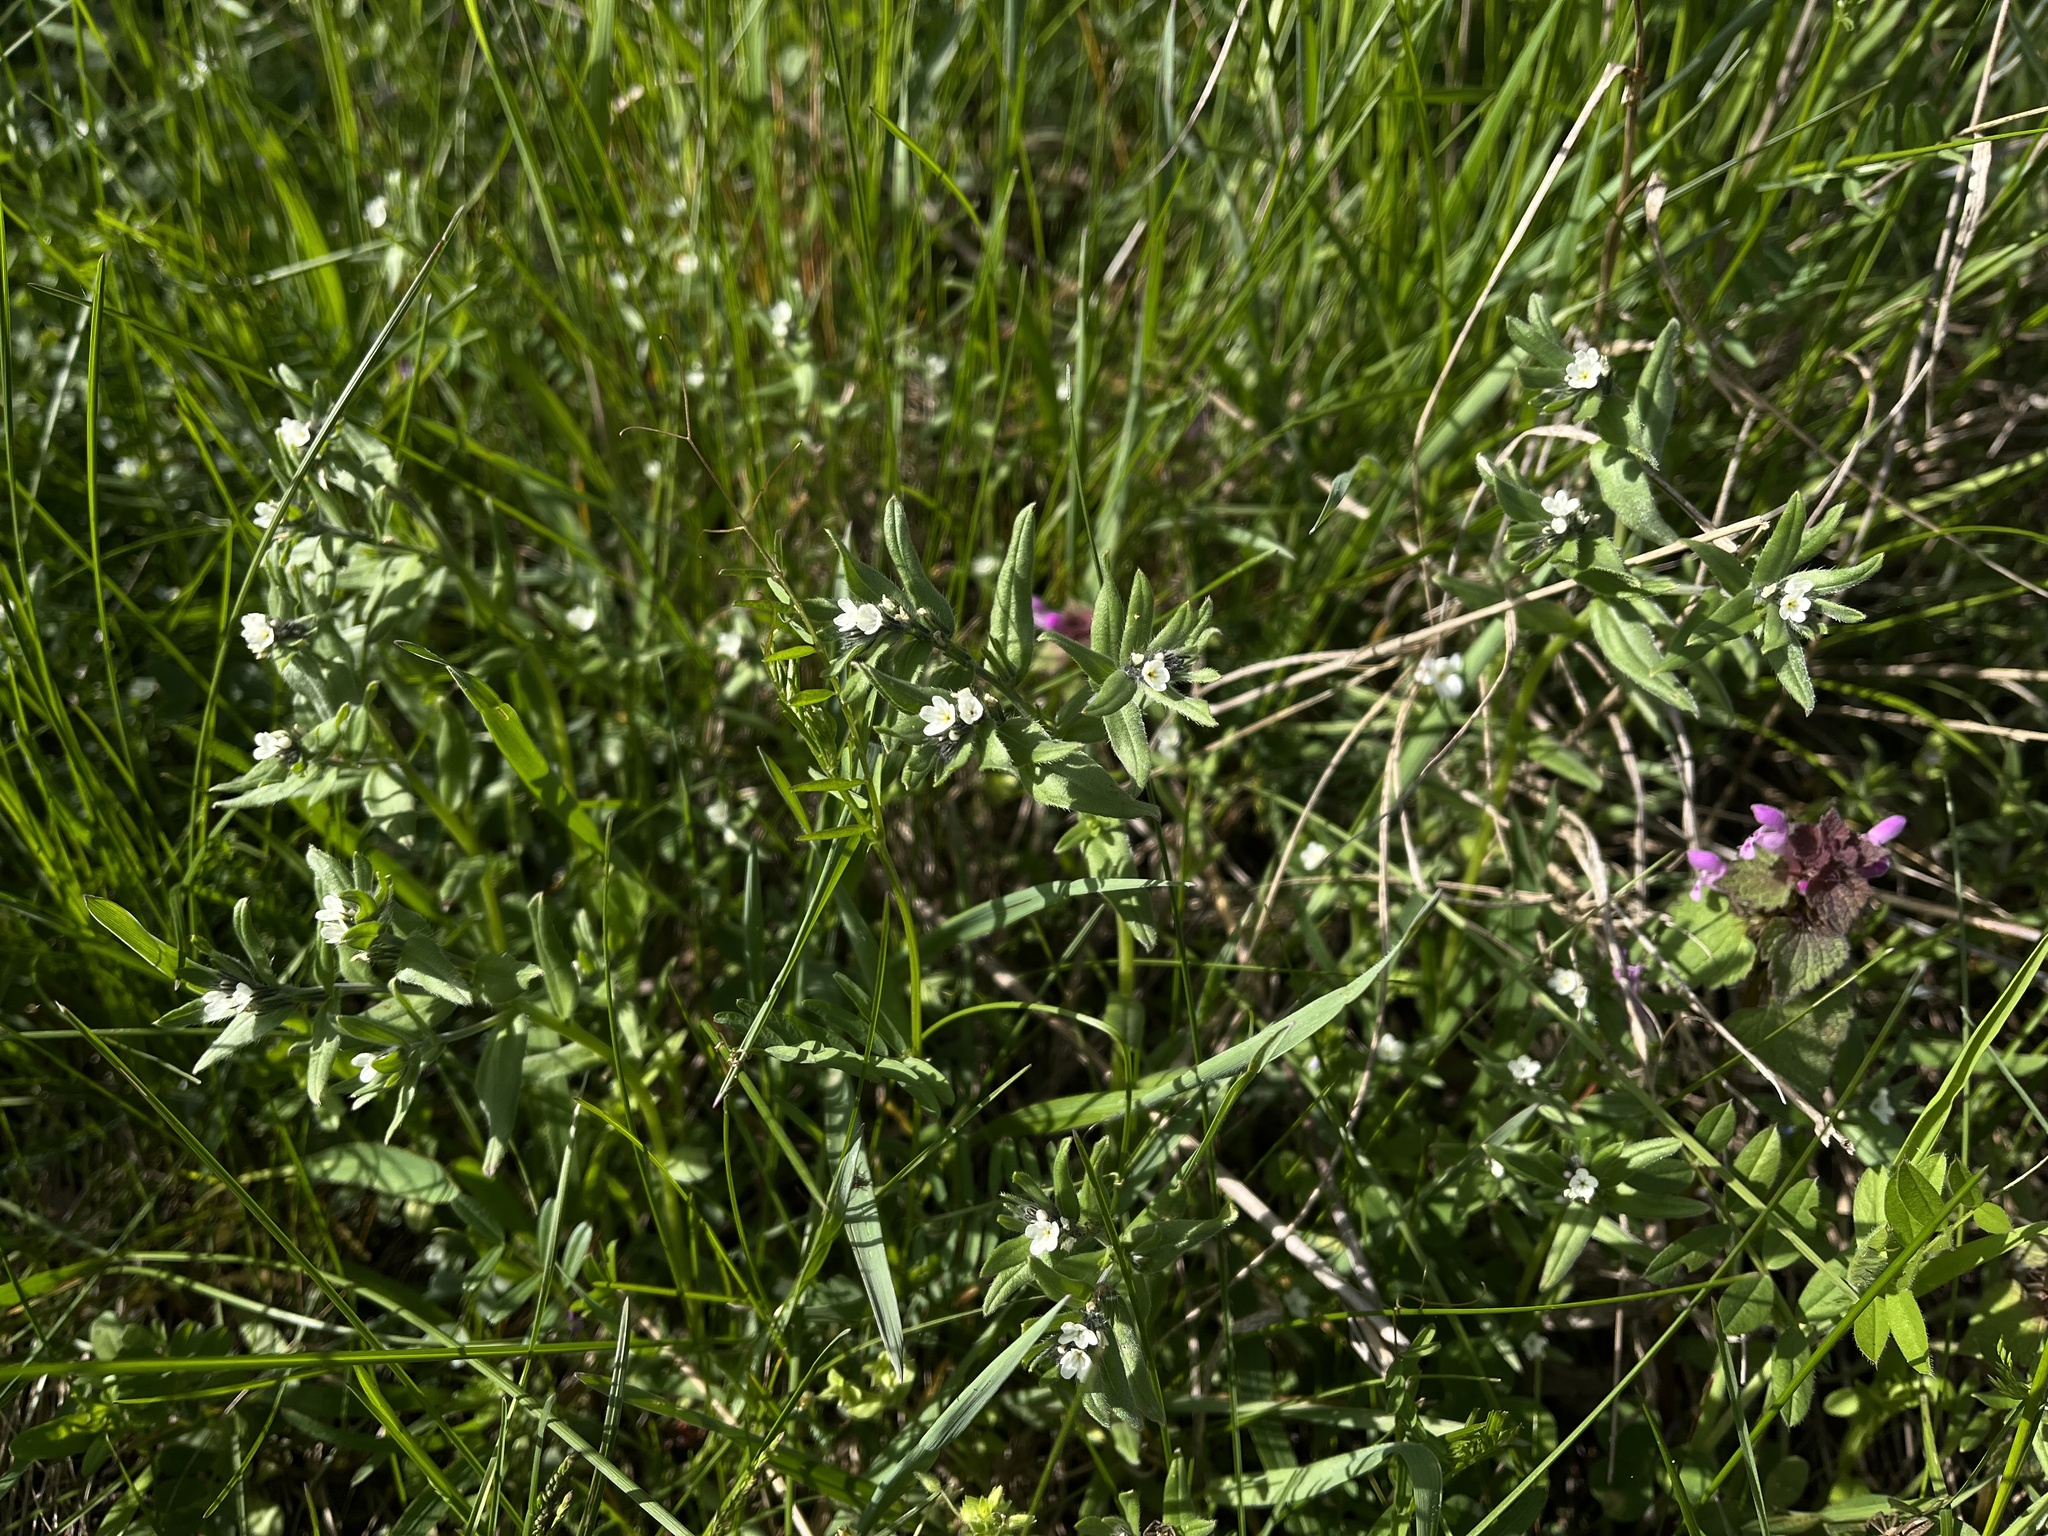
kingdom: Plantae
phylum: Tracheophyta
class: Magnoliopsida
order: Boraginales
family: Boraginaceae
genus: Buglossoides
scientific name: Buglossoides arvensis
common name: Corn gromwell
